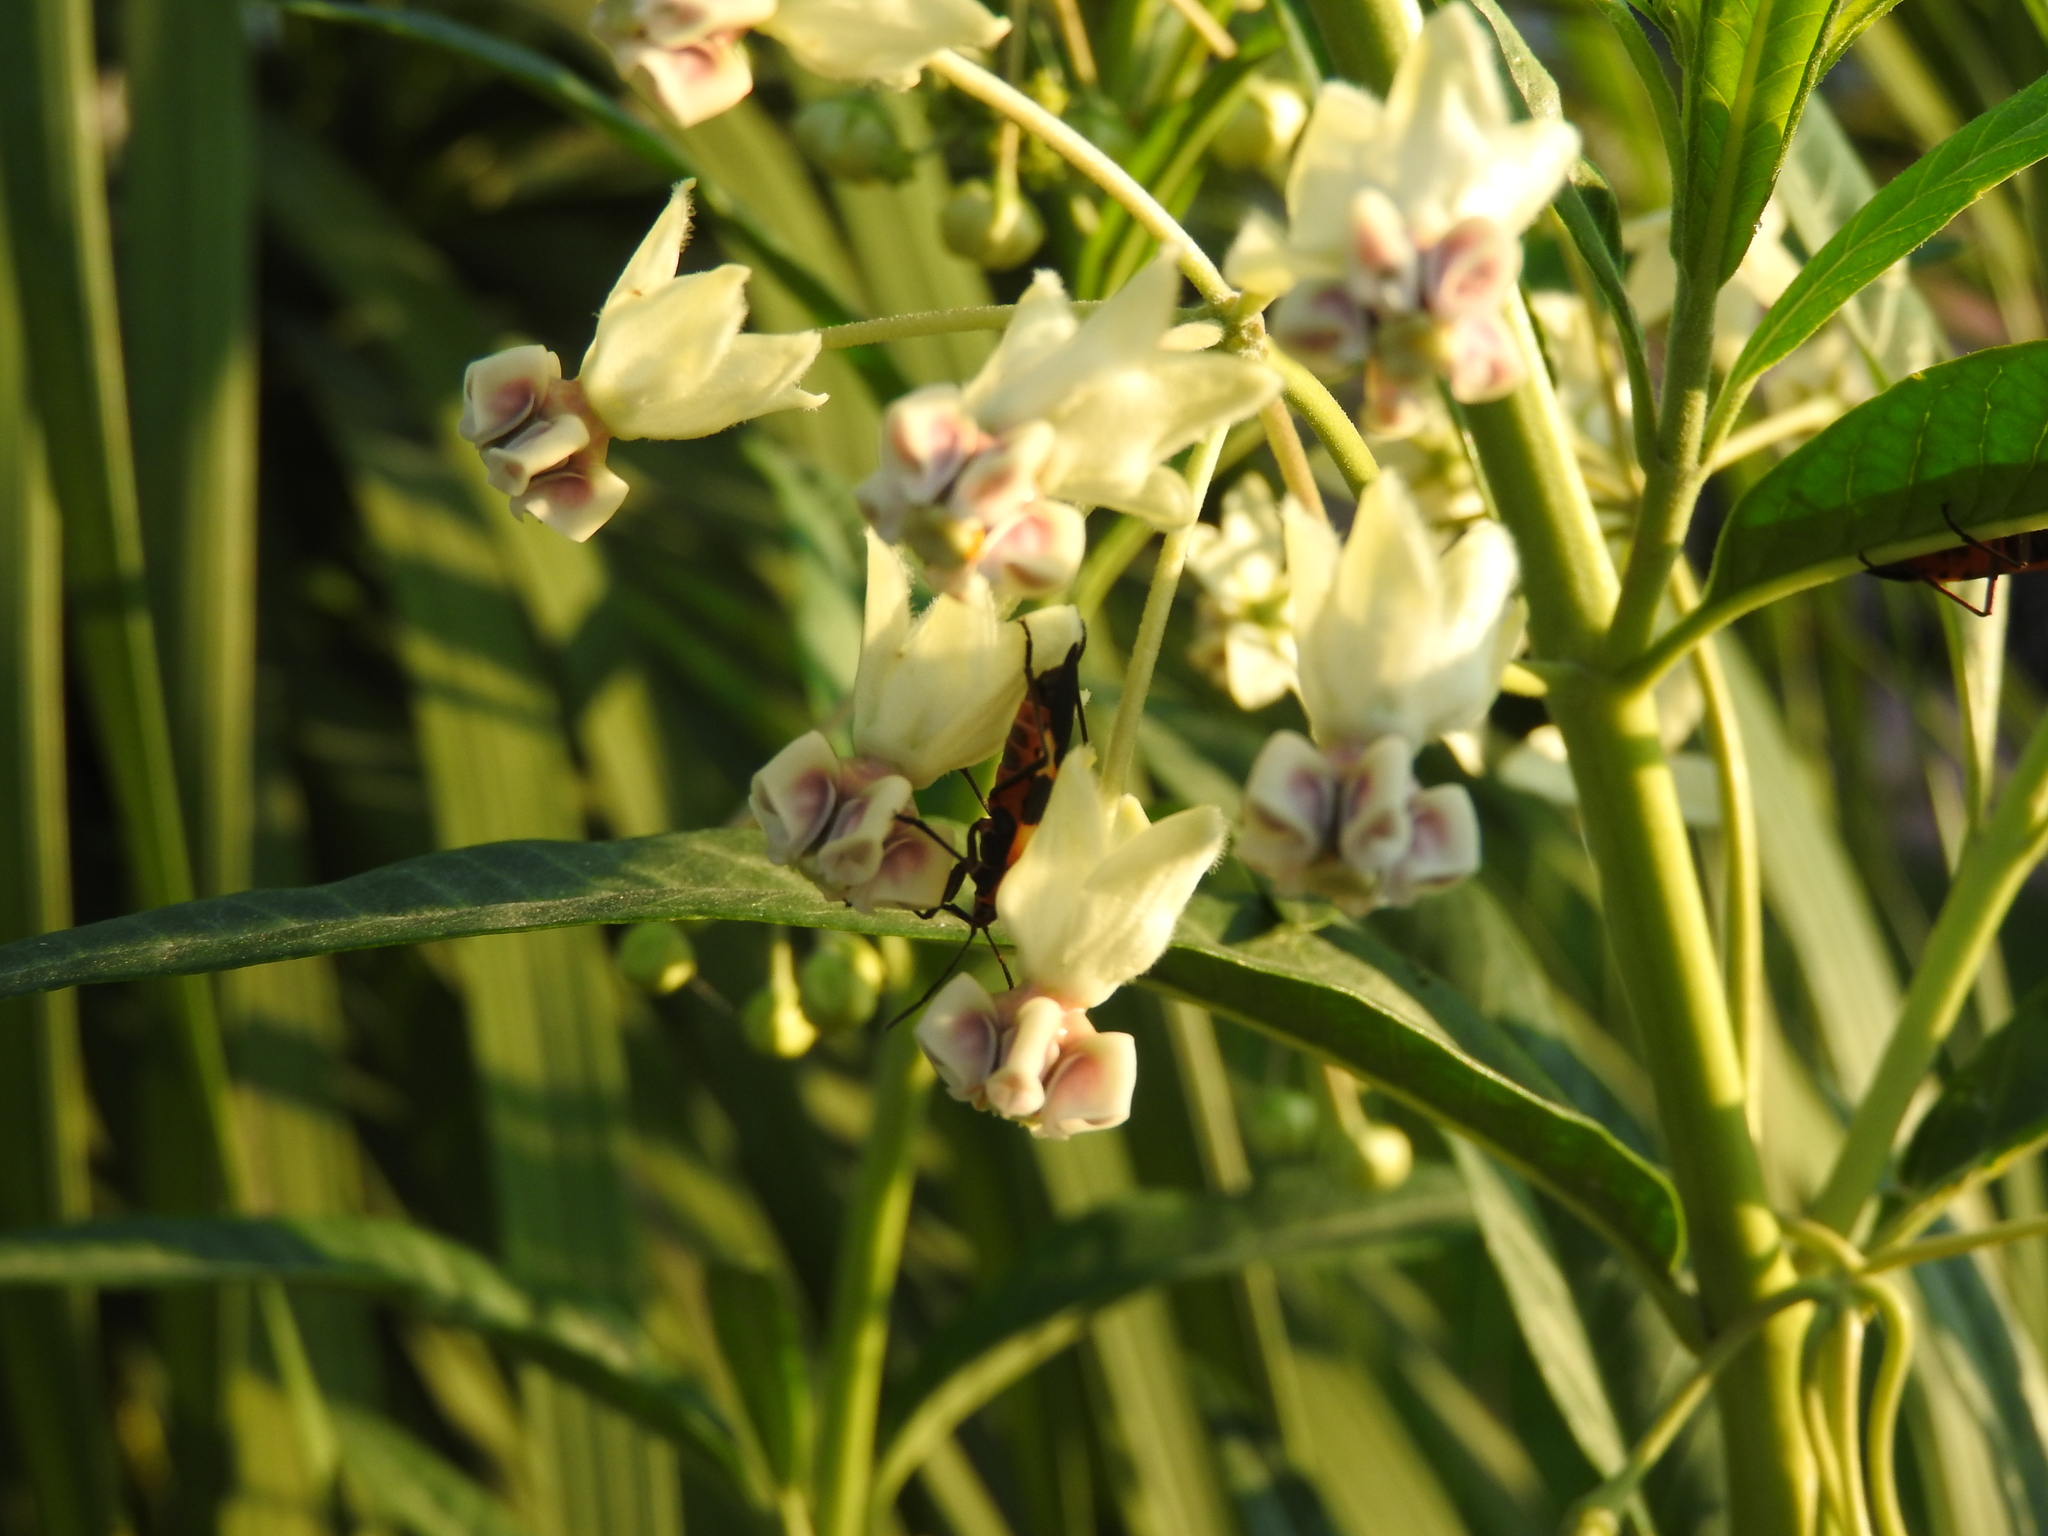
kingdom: Animalia
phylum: Arthropoda
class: Insecta
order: Hemiptera
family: Lygaeidae
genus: Oncopeltus
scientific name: Oncopeltus fasciatus
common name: Large milkweed bug
